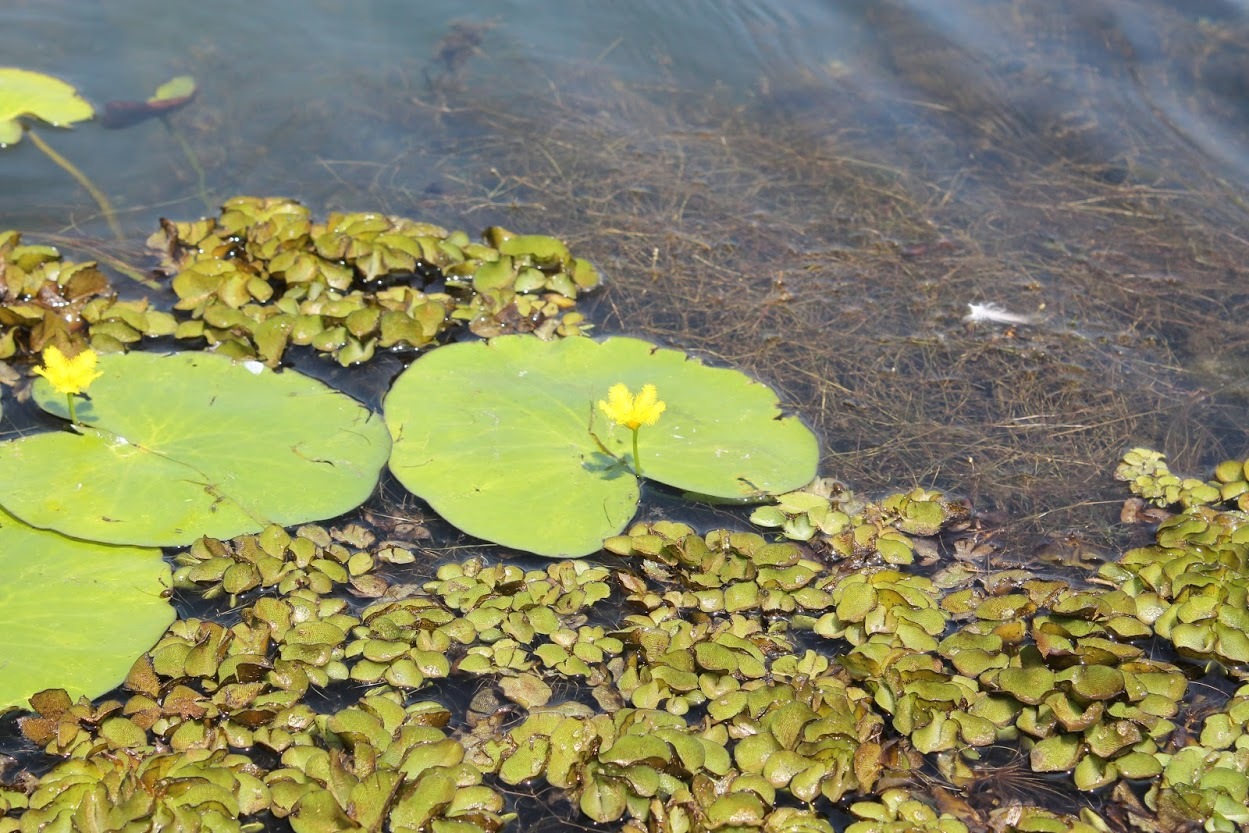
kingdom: Plantae
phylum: Tracheophyta
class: Magnoliopsida
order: Asterales
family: Menyanthaceae
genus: Nymphoides
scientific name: Nymphoides fallax
